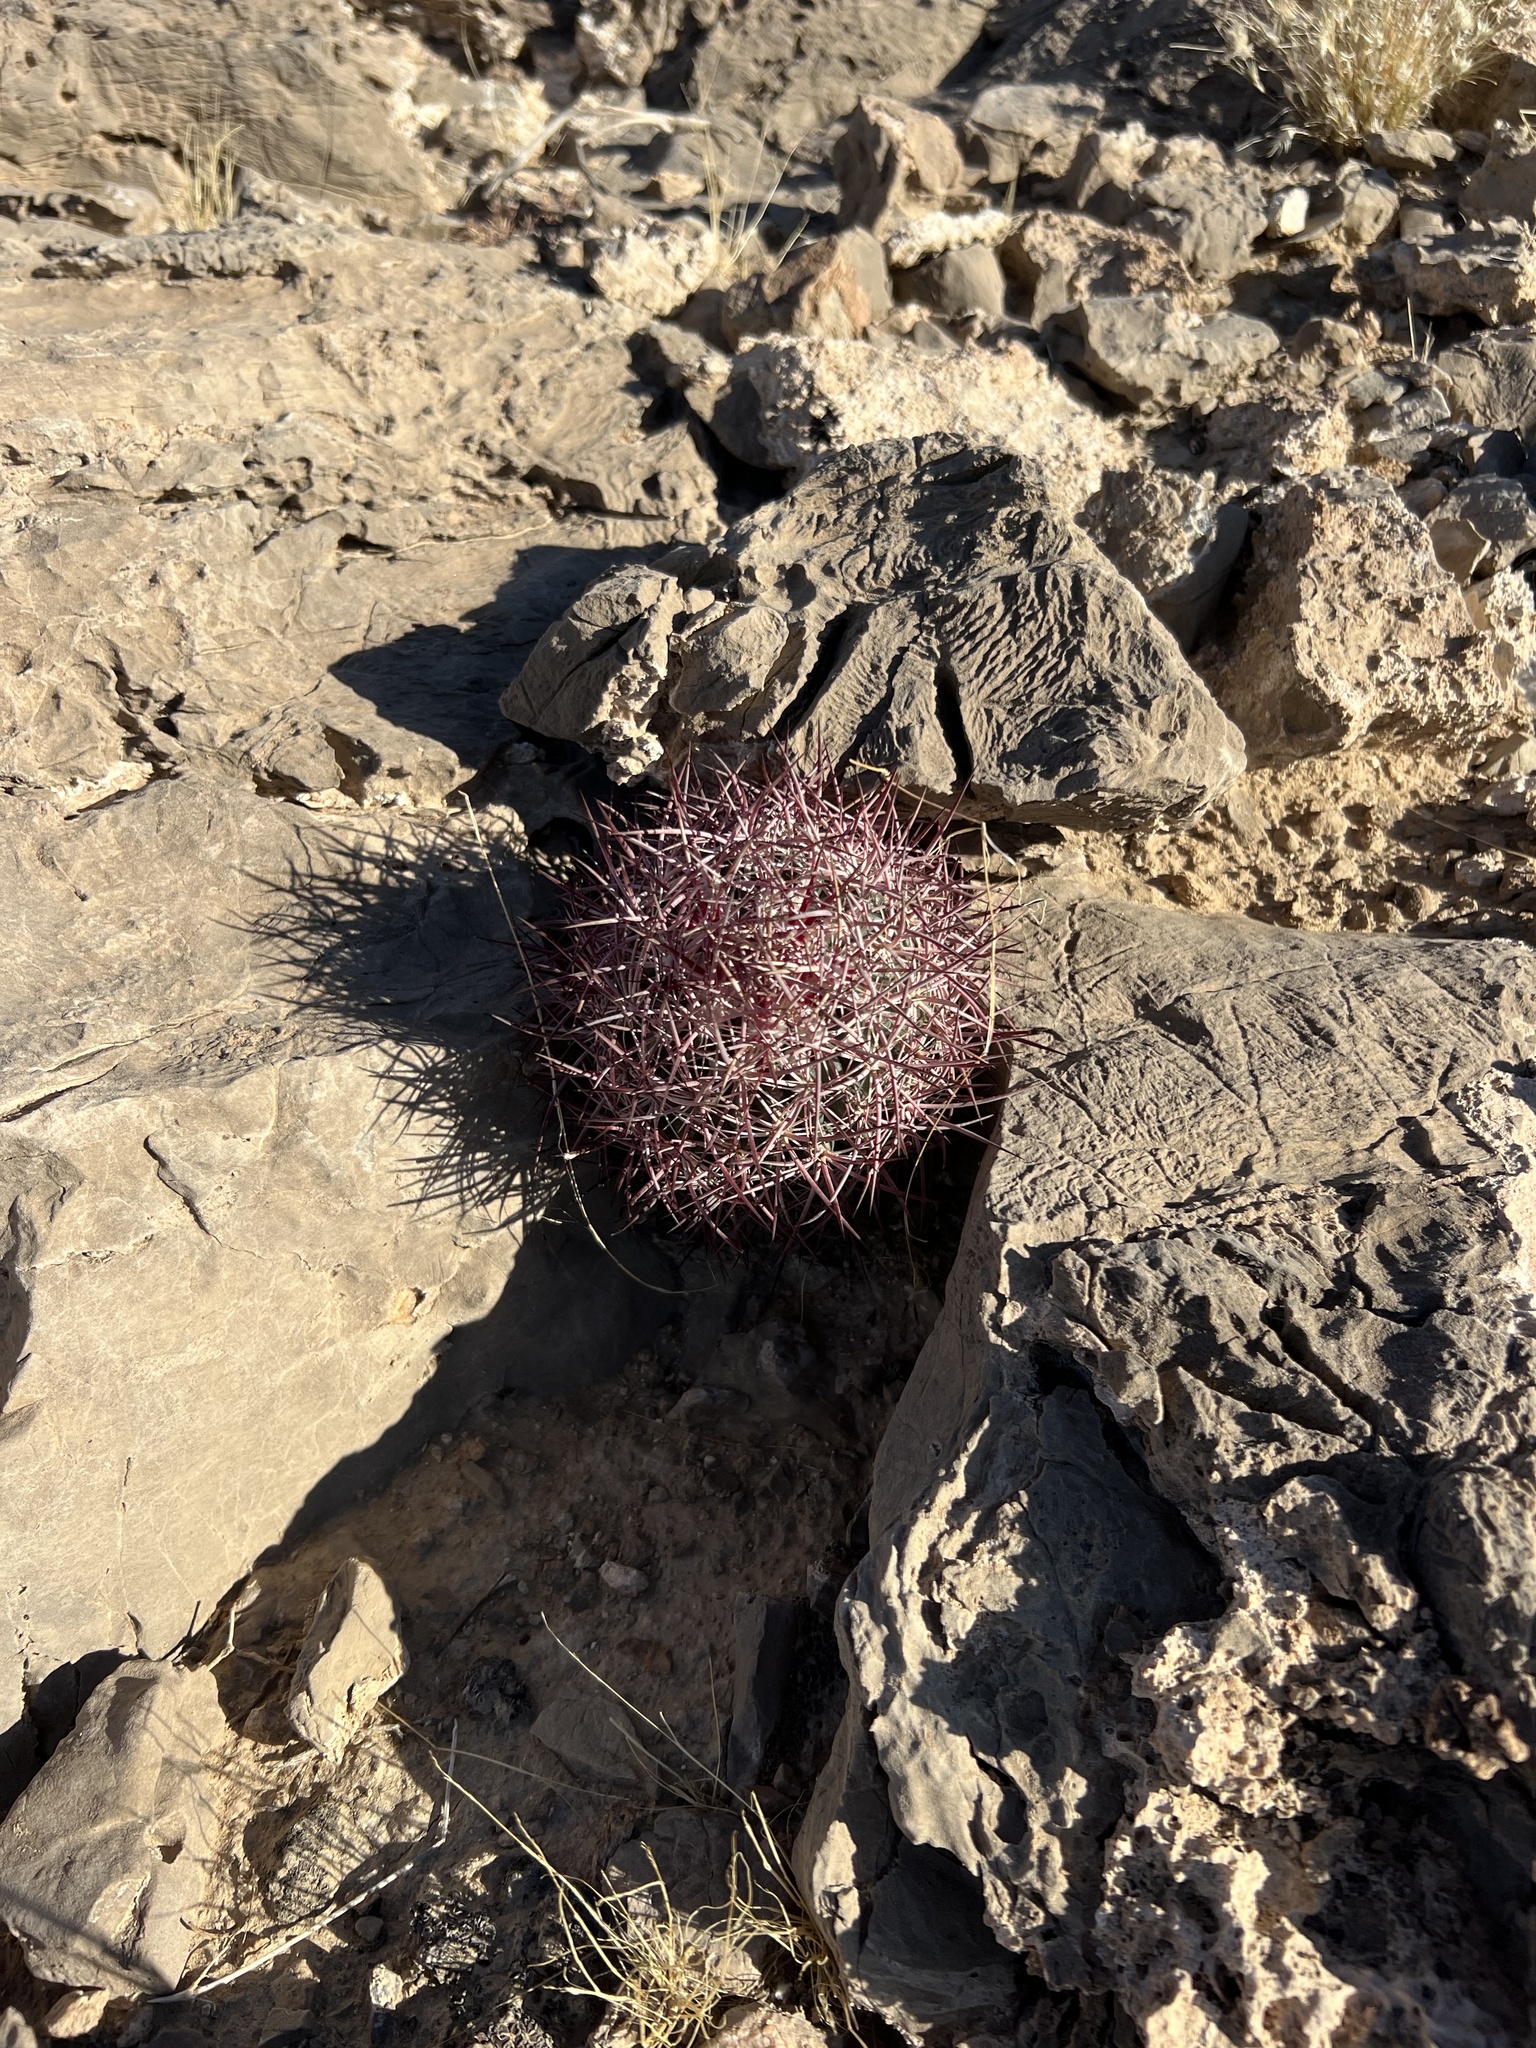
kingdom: Plantae
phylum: Tracheophyta
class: Magnoliopsida
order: Caryophyllales
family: Cactaceae
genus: Sclerocactus
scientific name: Sclerocactus johnsonii
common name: Eight-spine fishhook cactus
